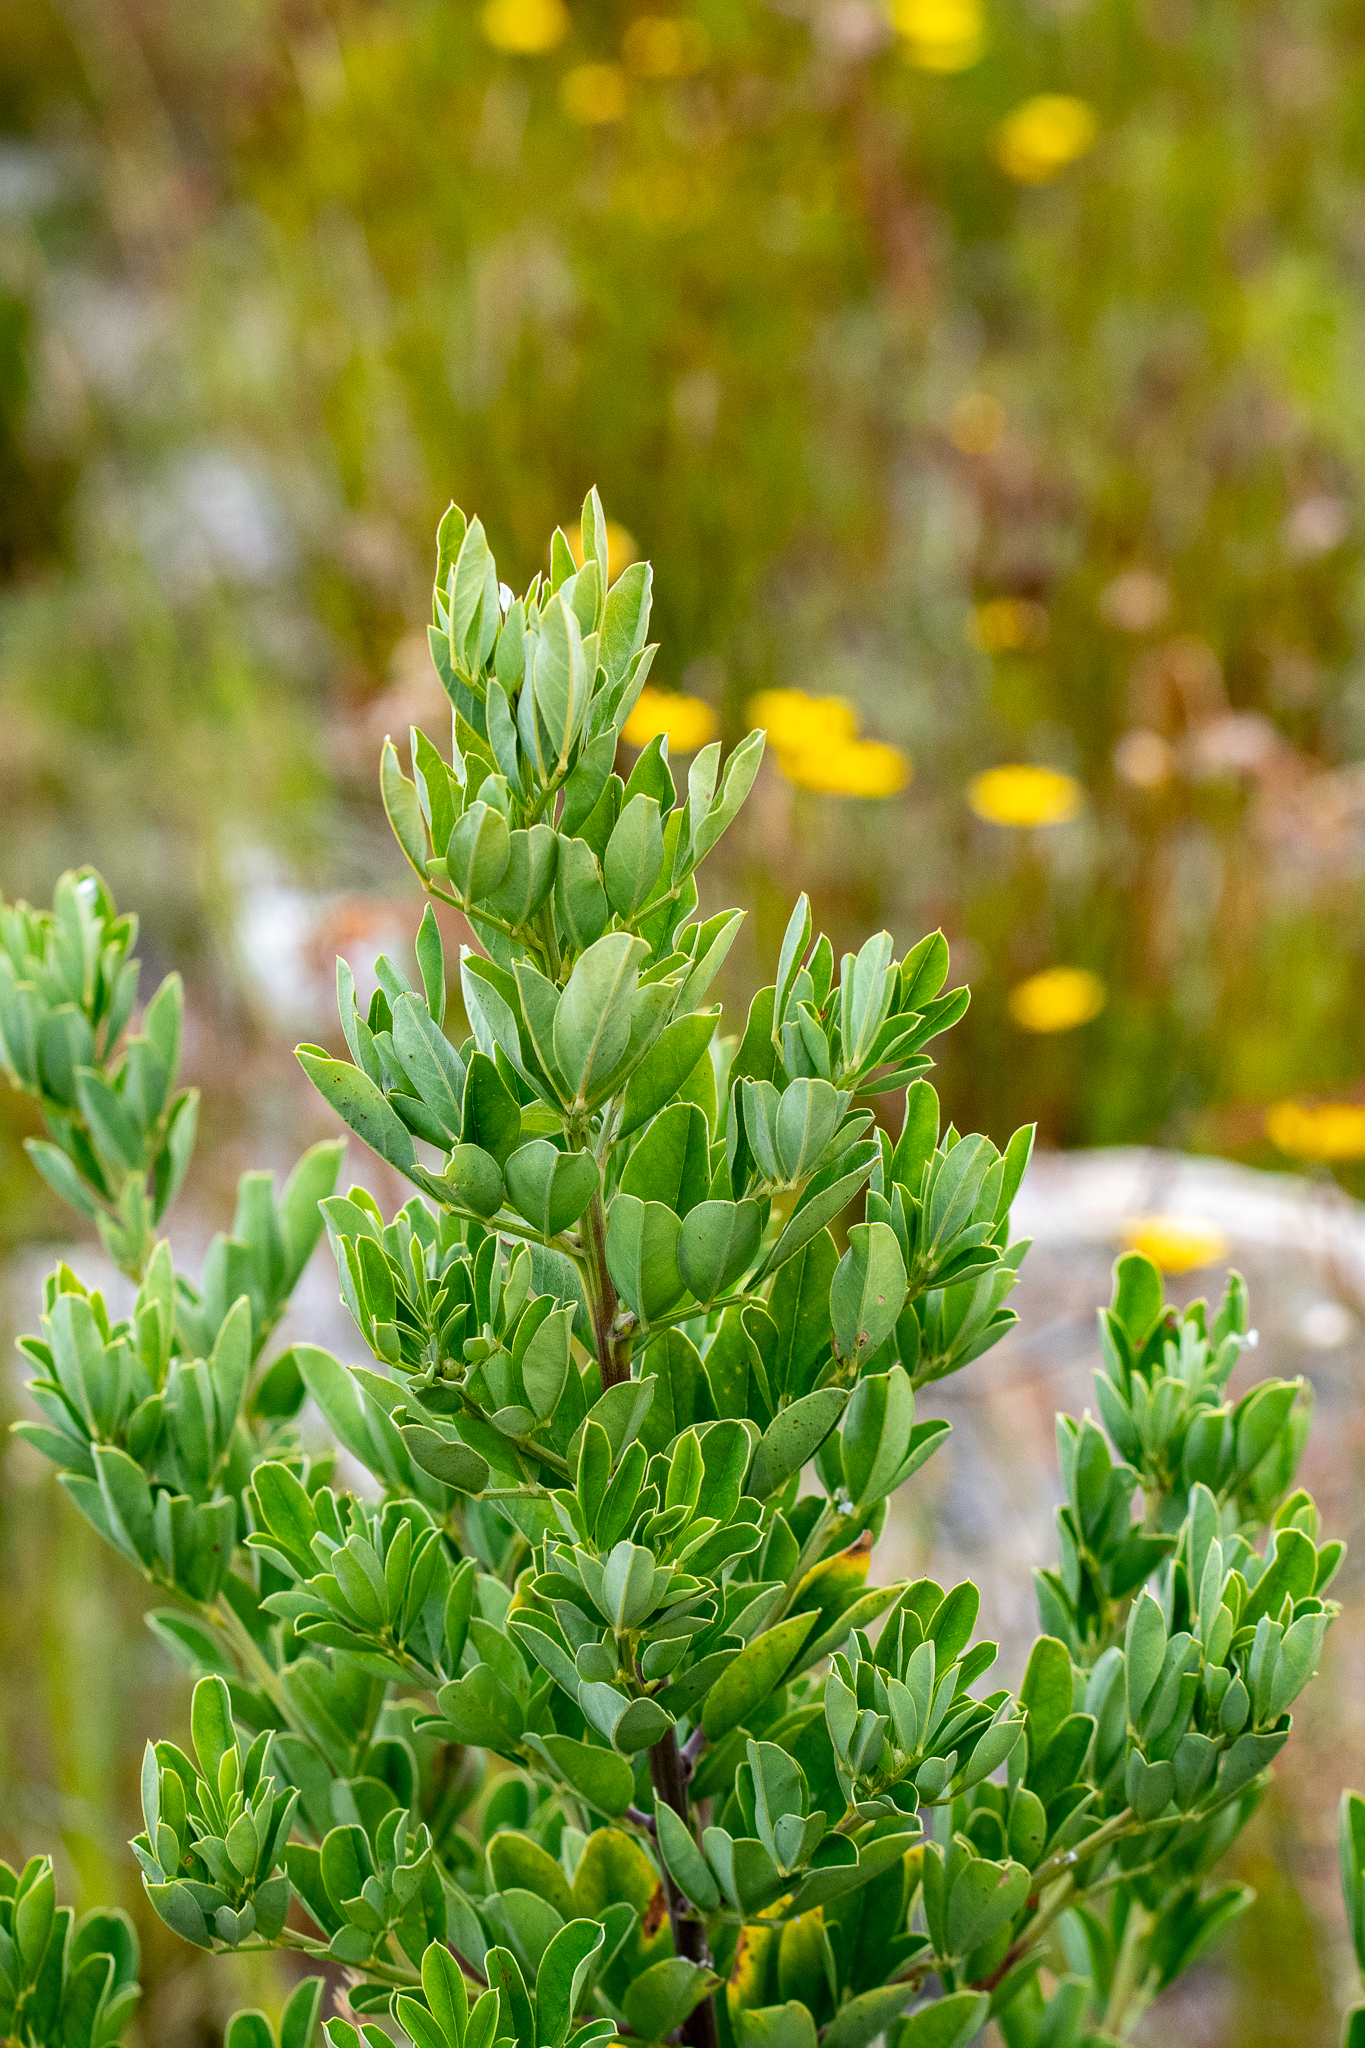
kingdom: Plantae
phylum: Tracheophyta
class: Magnoliopsida
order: Fabales
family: Fabaceae
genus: Indigofera
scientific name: Indigofera cytisoides
